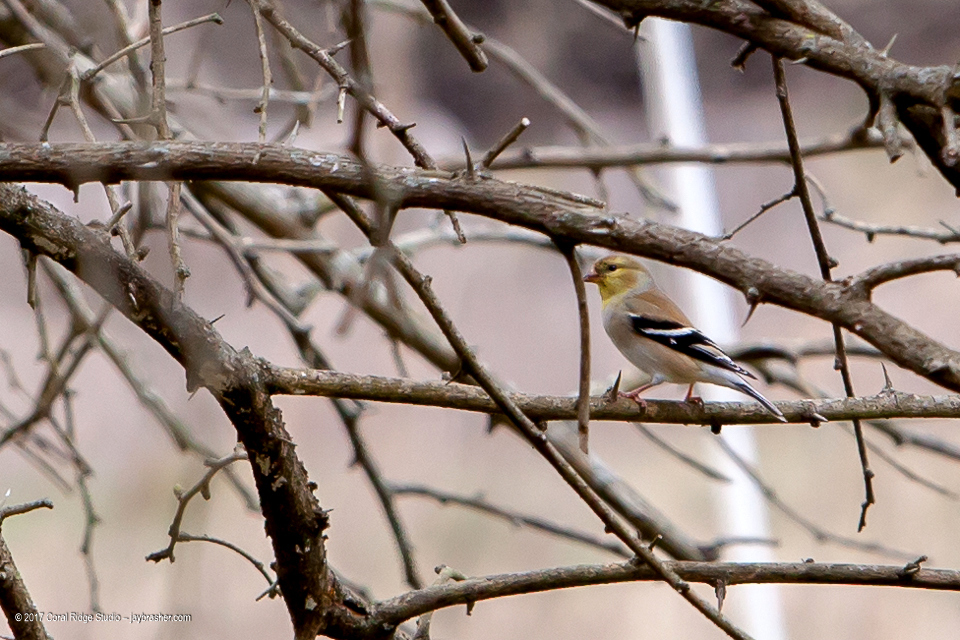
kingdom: Animalia
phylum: Chordata
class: Aves
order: Passeriformes
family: Fringillidae
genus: Spinus
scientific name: Spinus tristis
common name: American goldfinch
